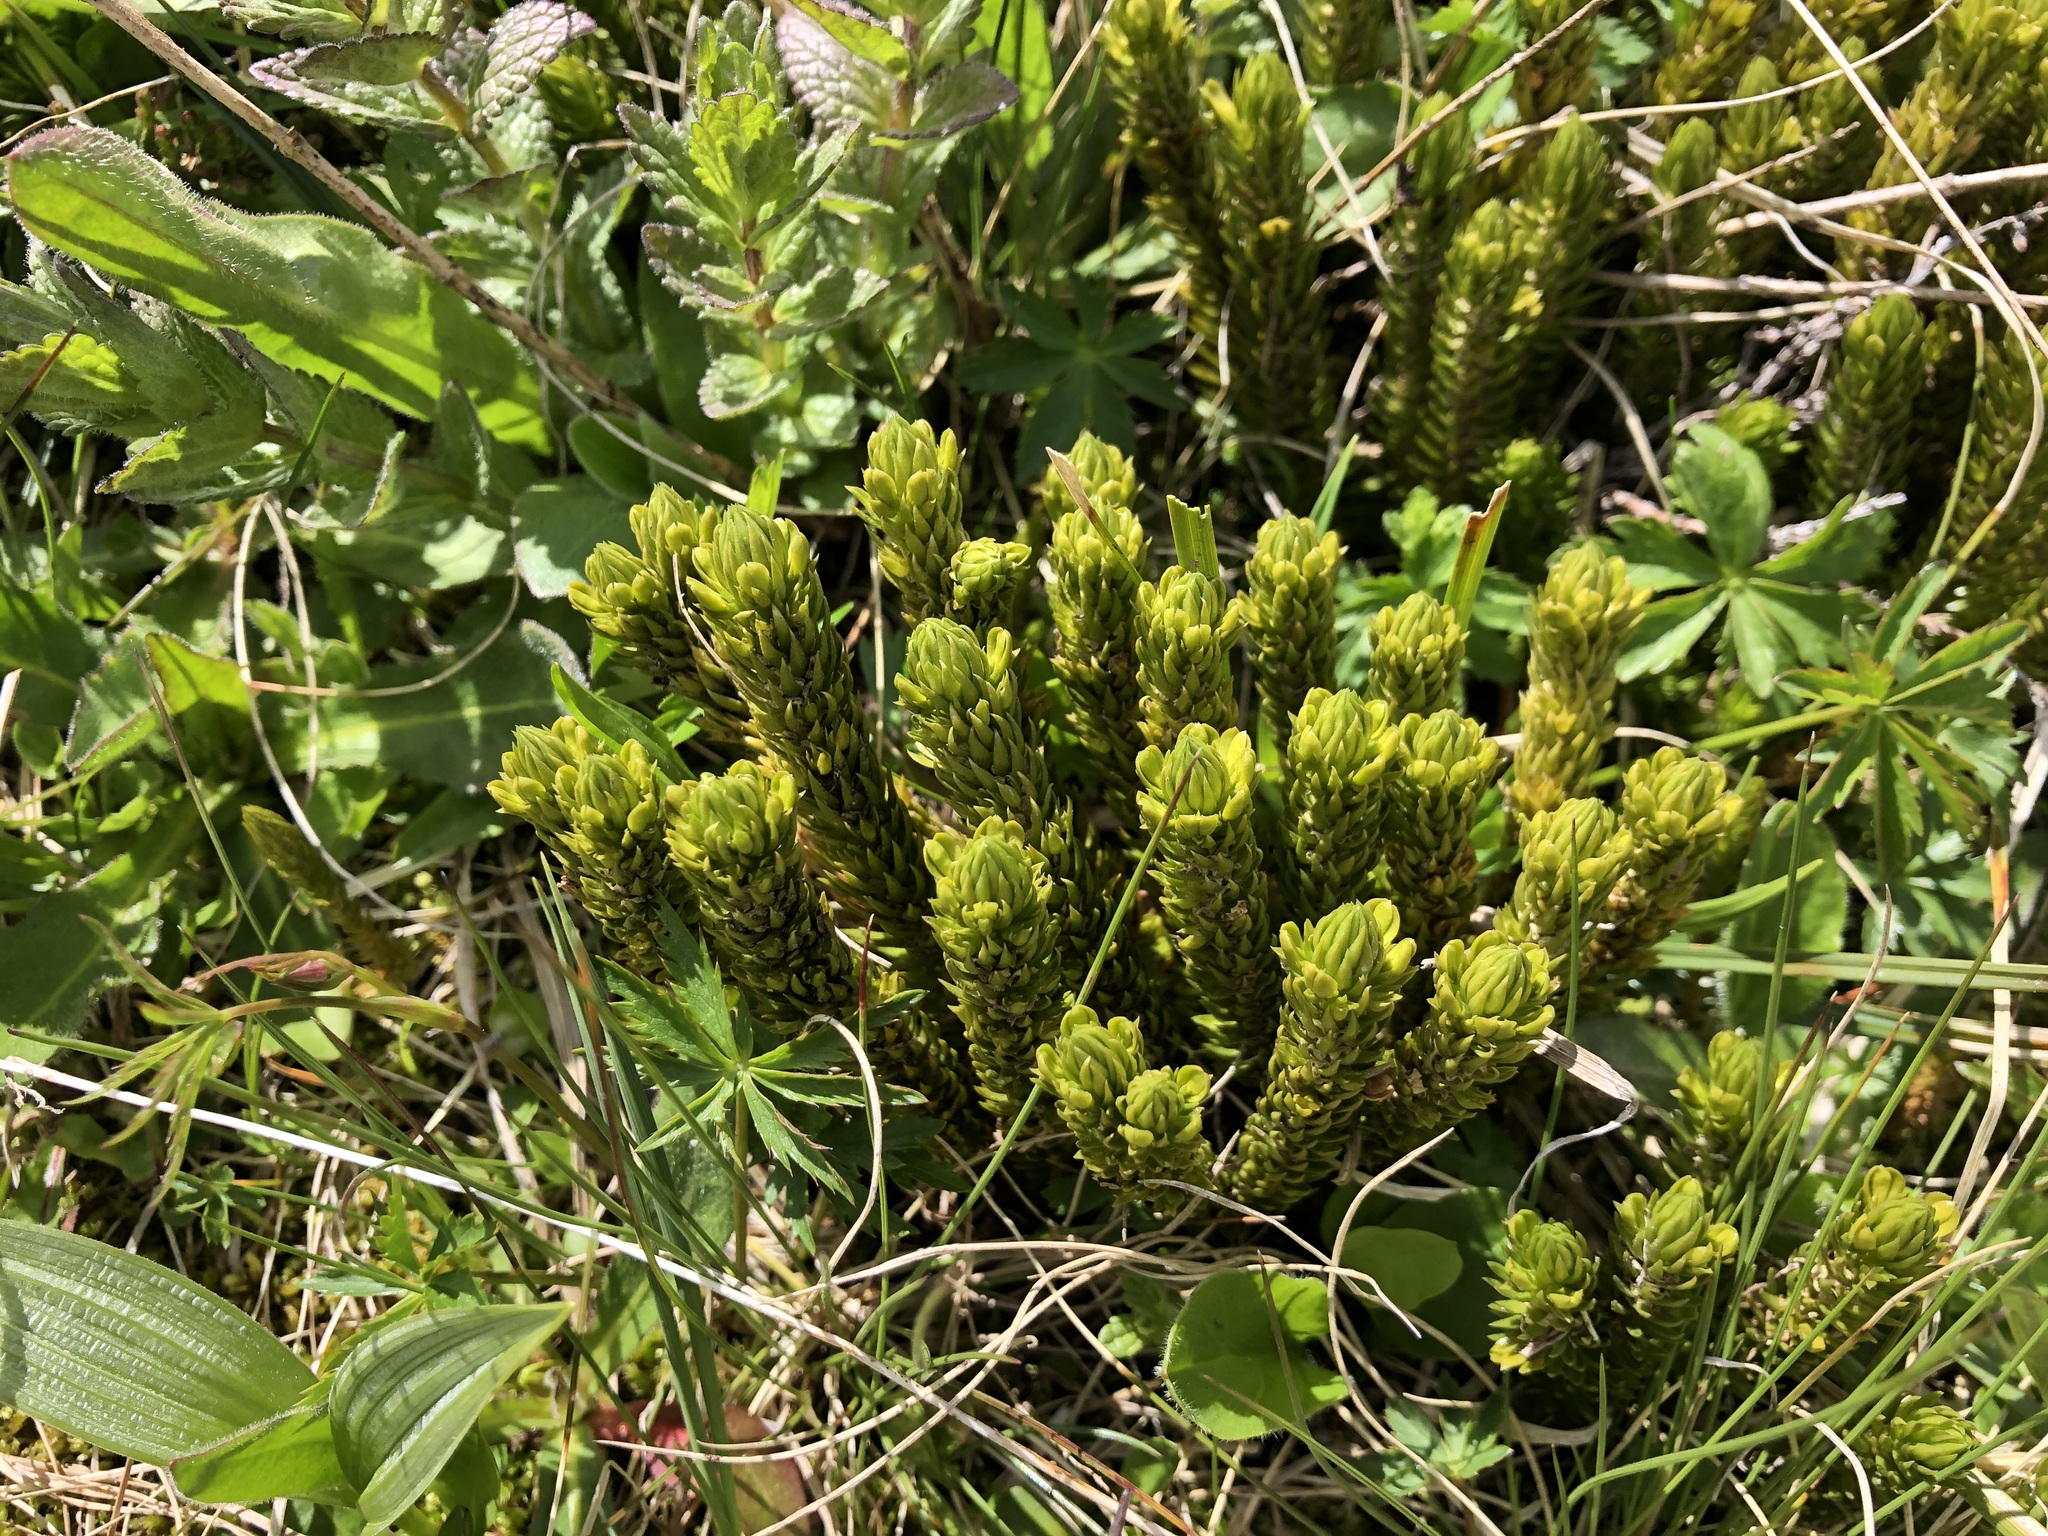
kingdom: Plantae
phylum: Tracheophyta
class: Lycopodiopsida
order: Lycopodiales
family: Lycopodiaceae
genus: Huperzia
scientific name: Huperzia selago
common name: Northern firmoss
